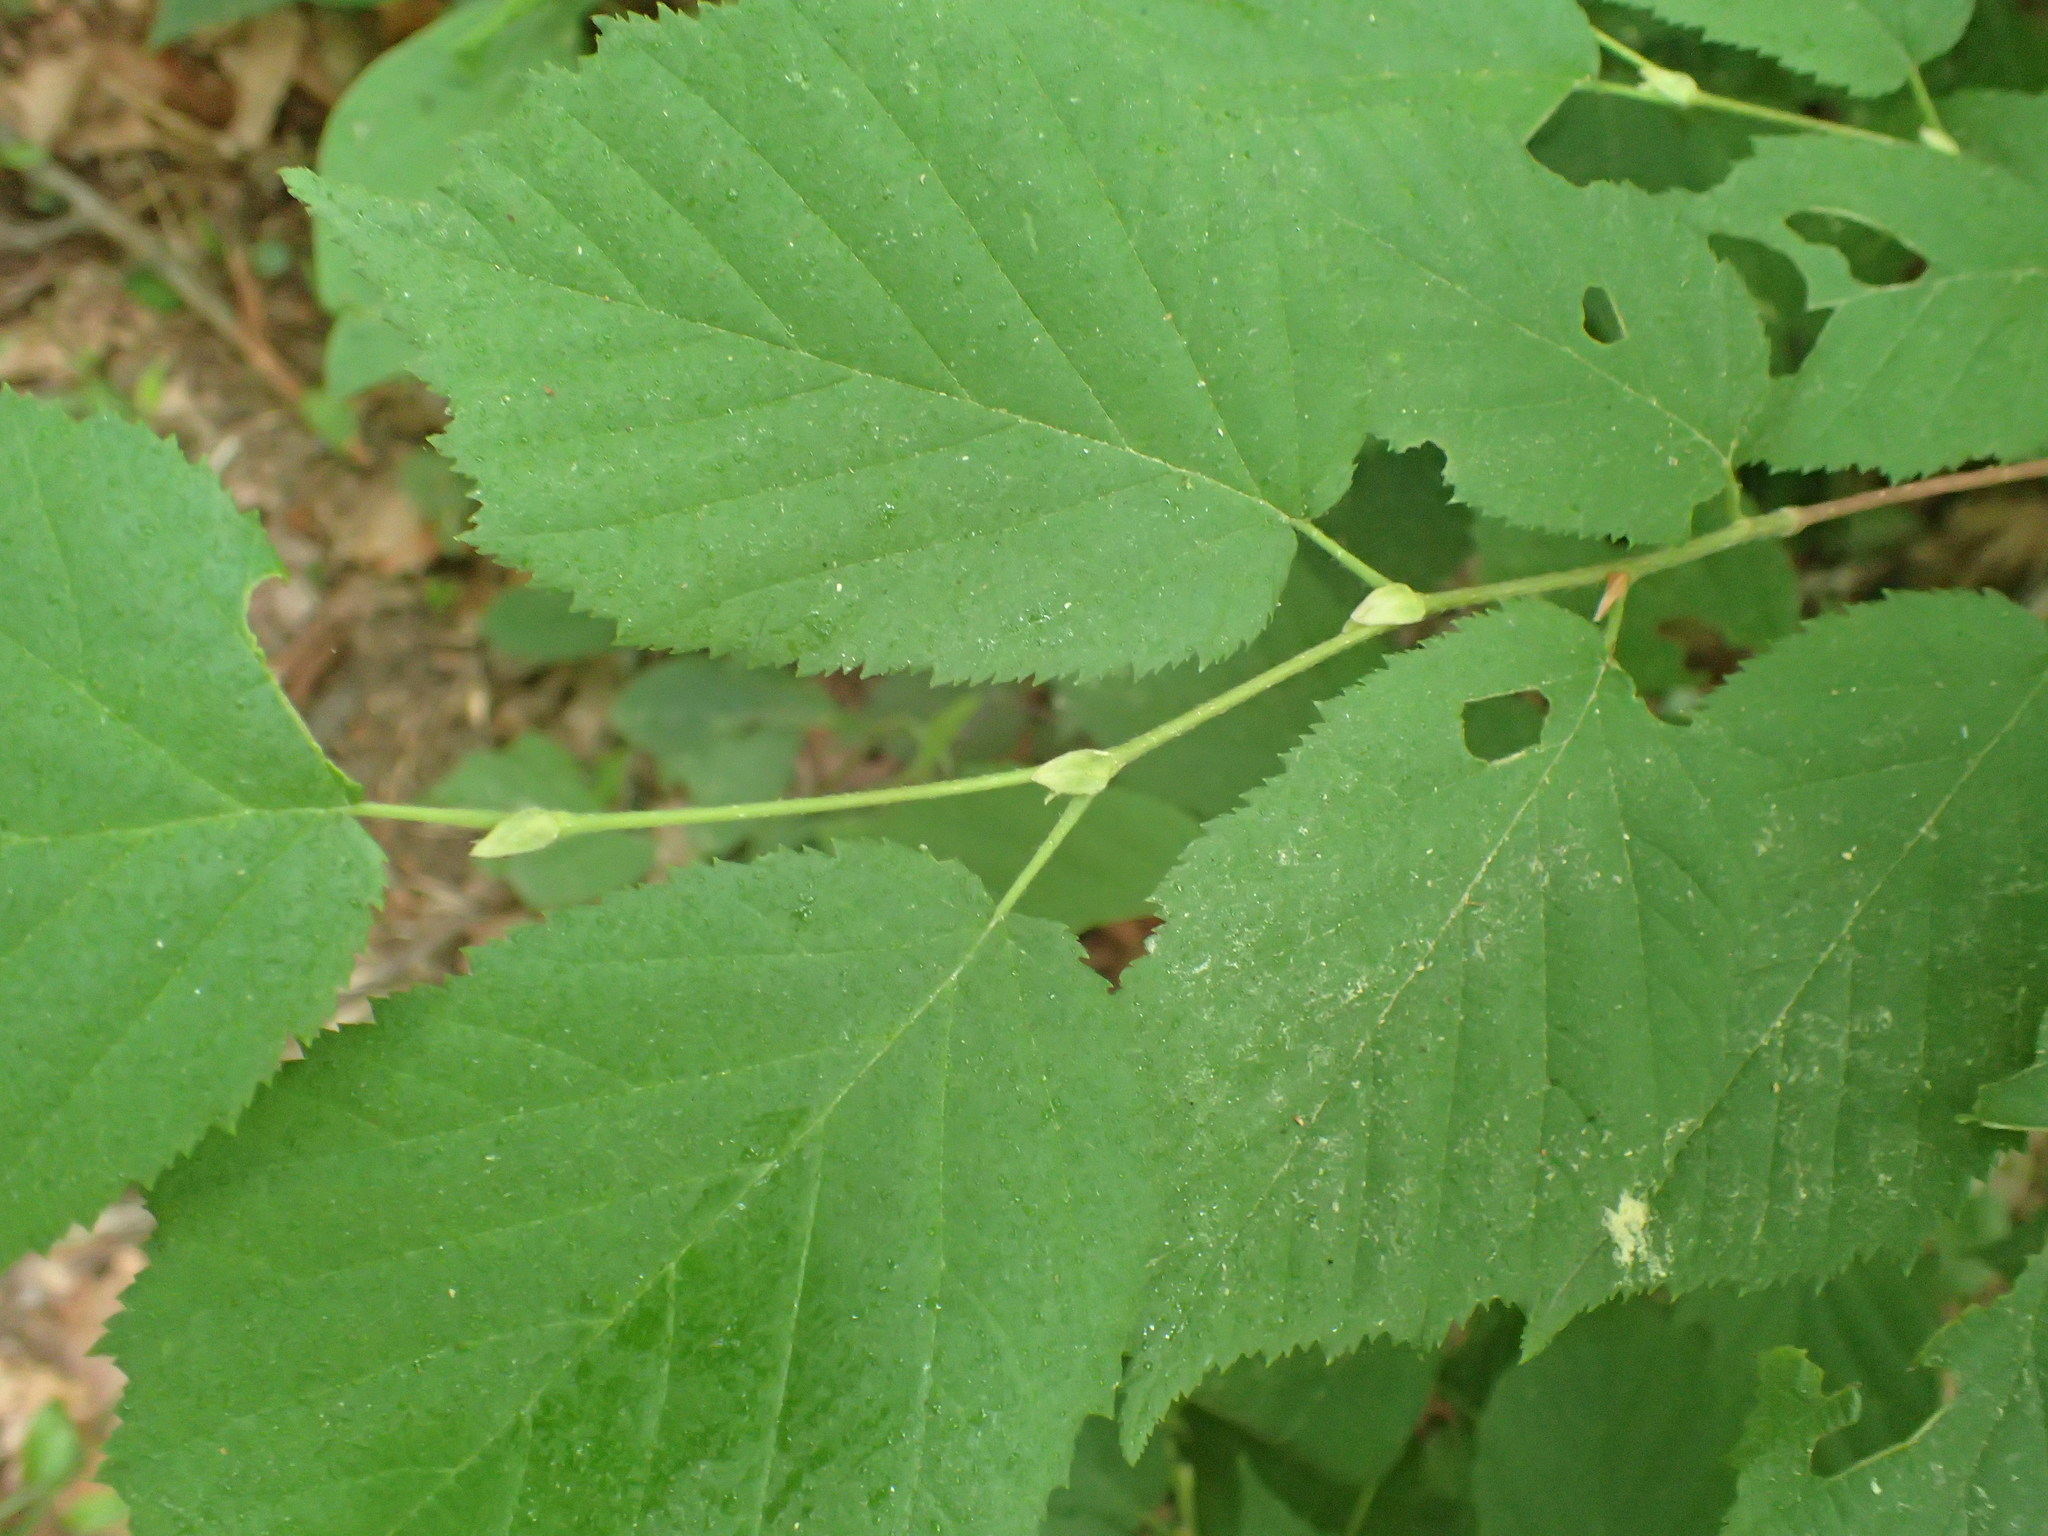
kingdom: Plantae
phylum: Tracheophyta
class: Magnoliopsida
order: Fagales
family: Betulaceae
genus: Corylus
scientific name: Corylus cornuta
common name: Beaked hazel
